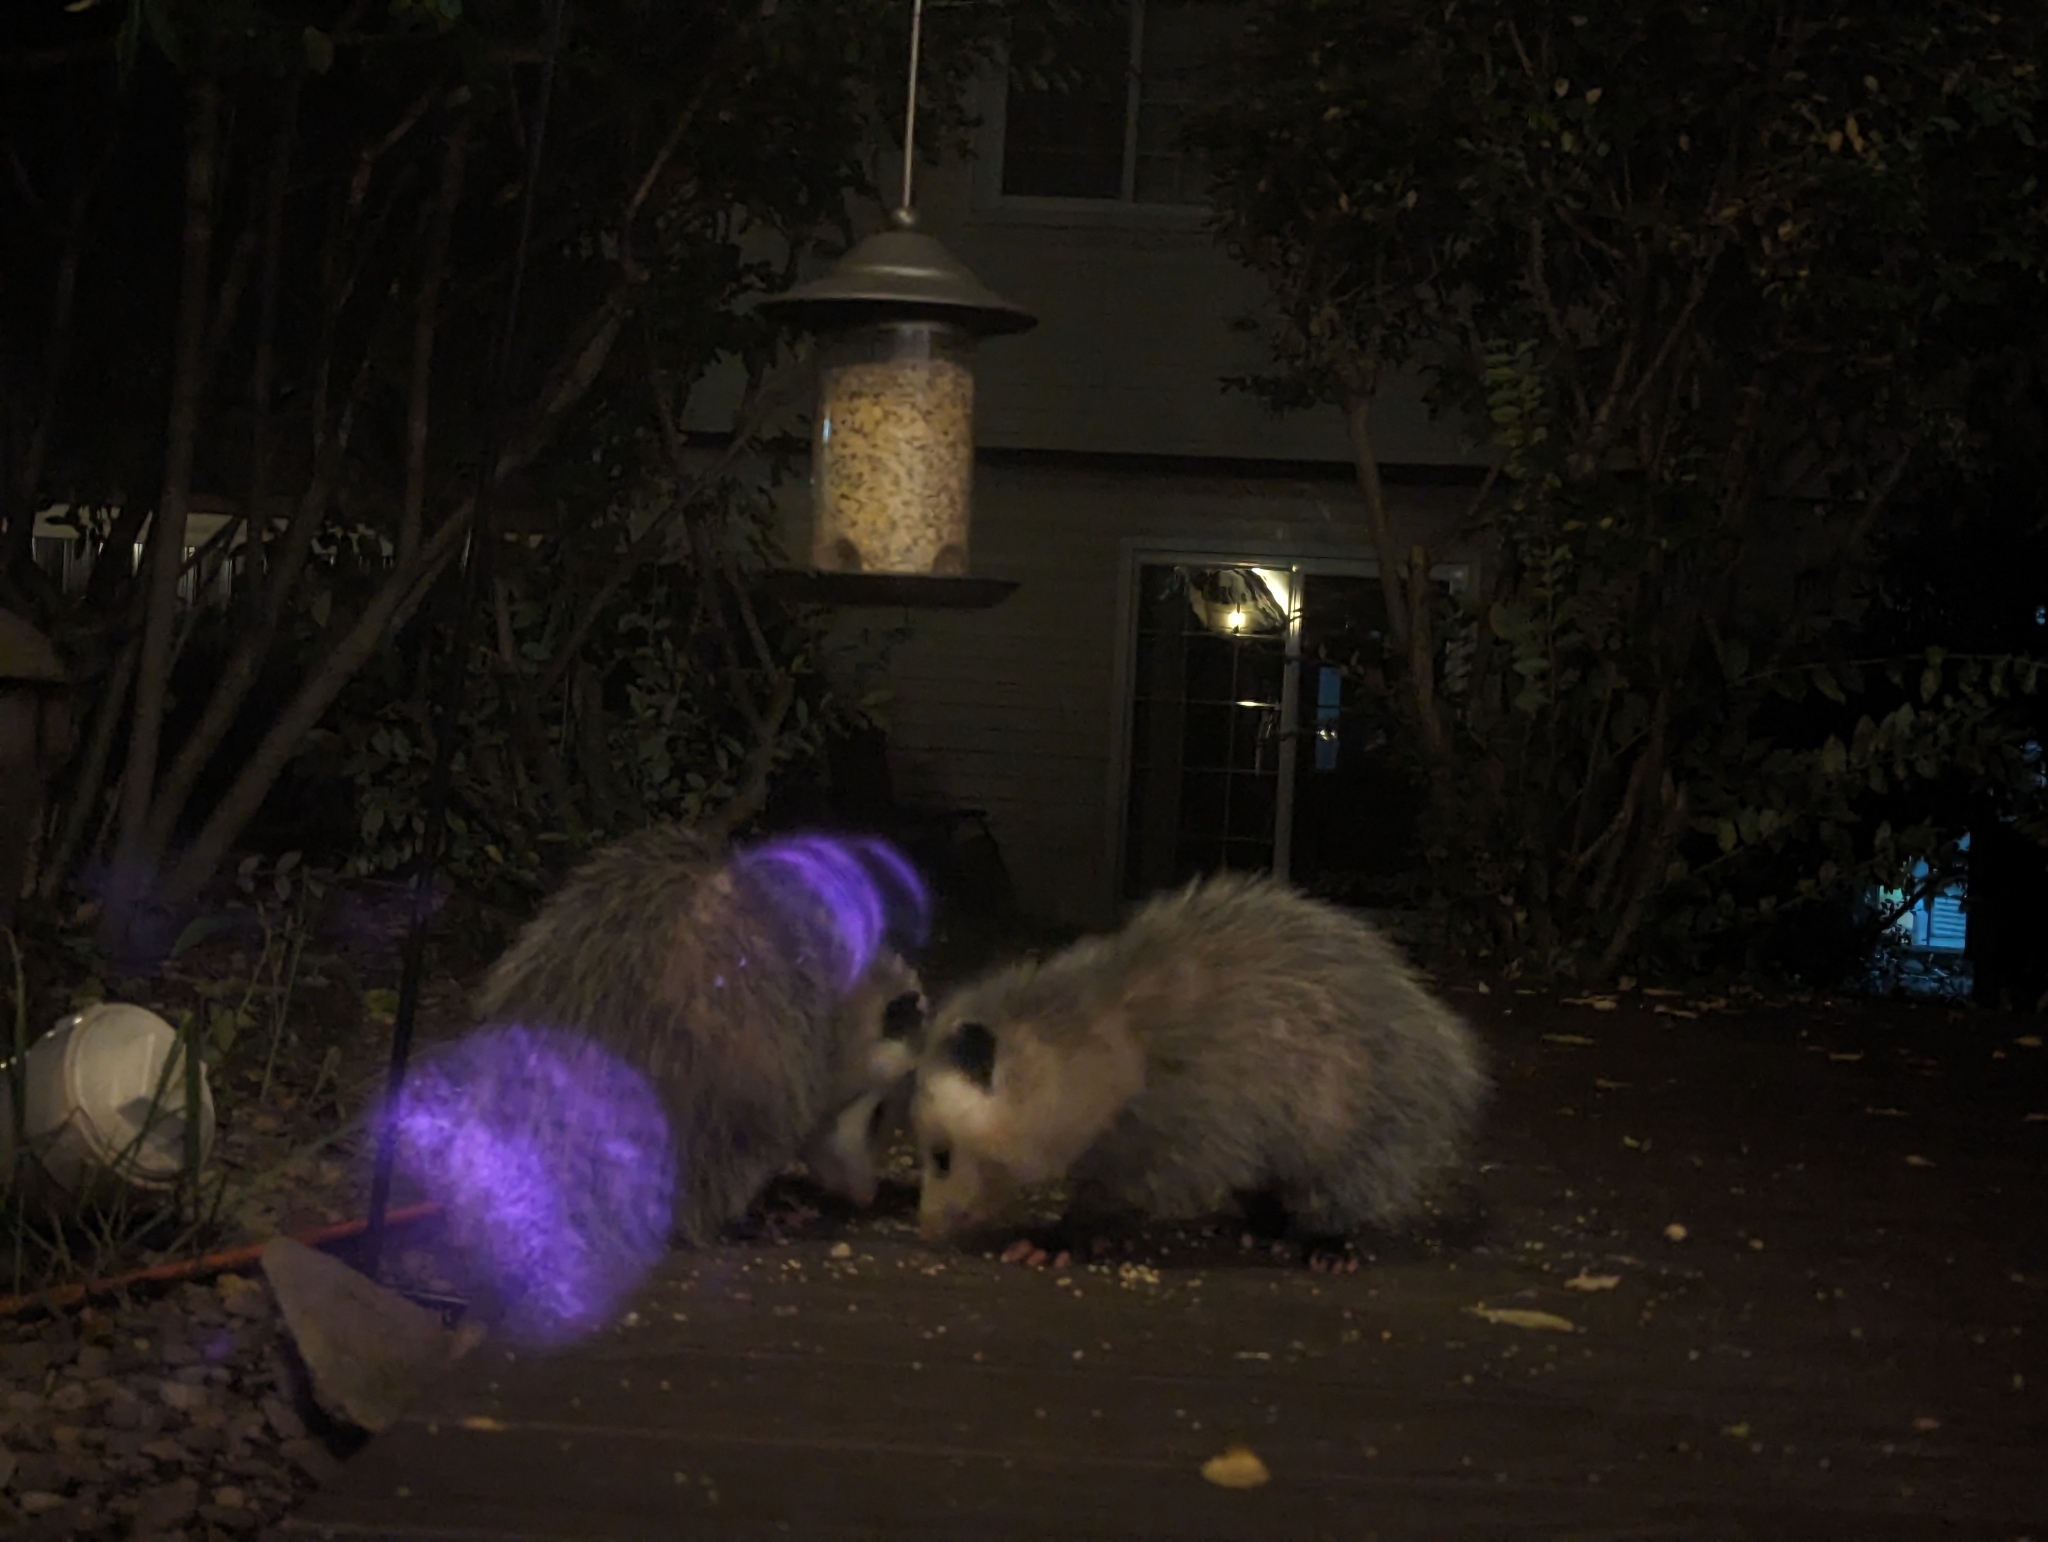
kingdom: Animalia
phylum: Chordata
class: Mammalia
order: Didelphimorphia
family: Didelphidae
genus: Didelphis
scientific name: Didelphis virginiana
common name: Virginia opossum
